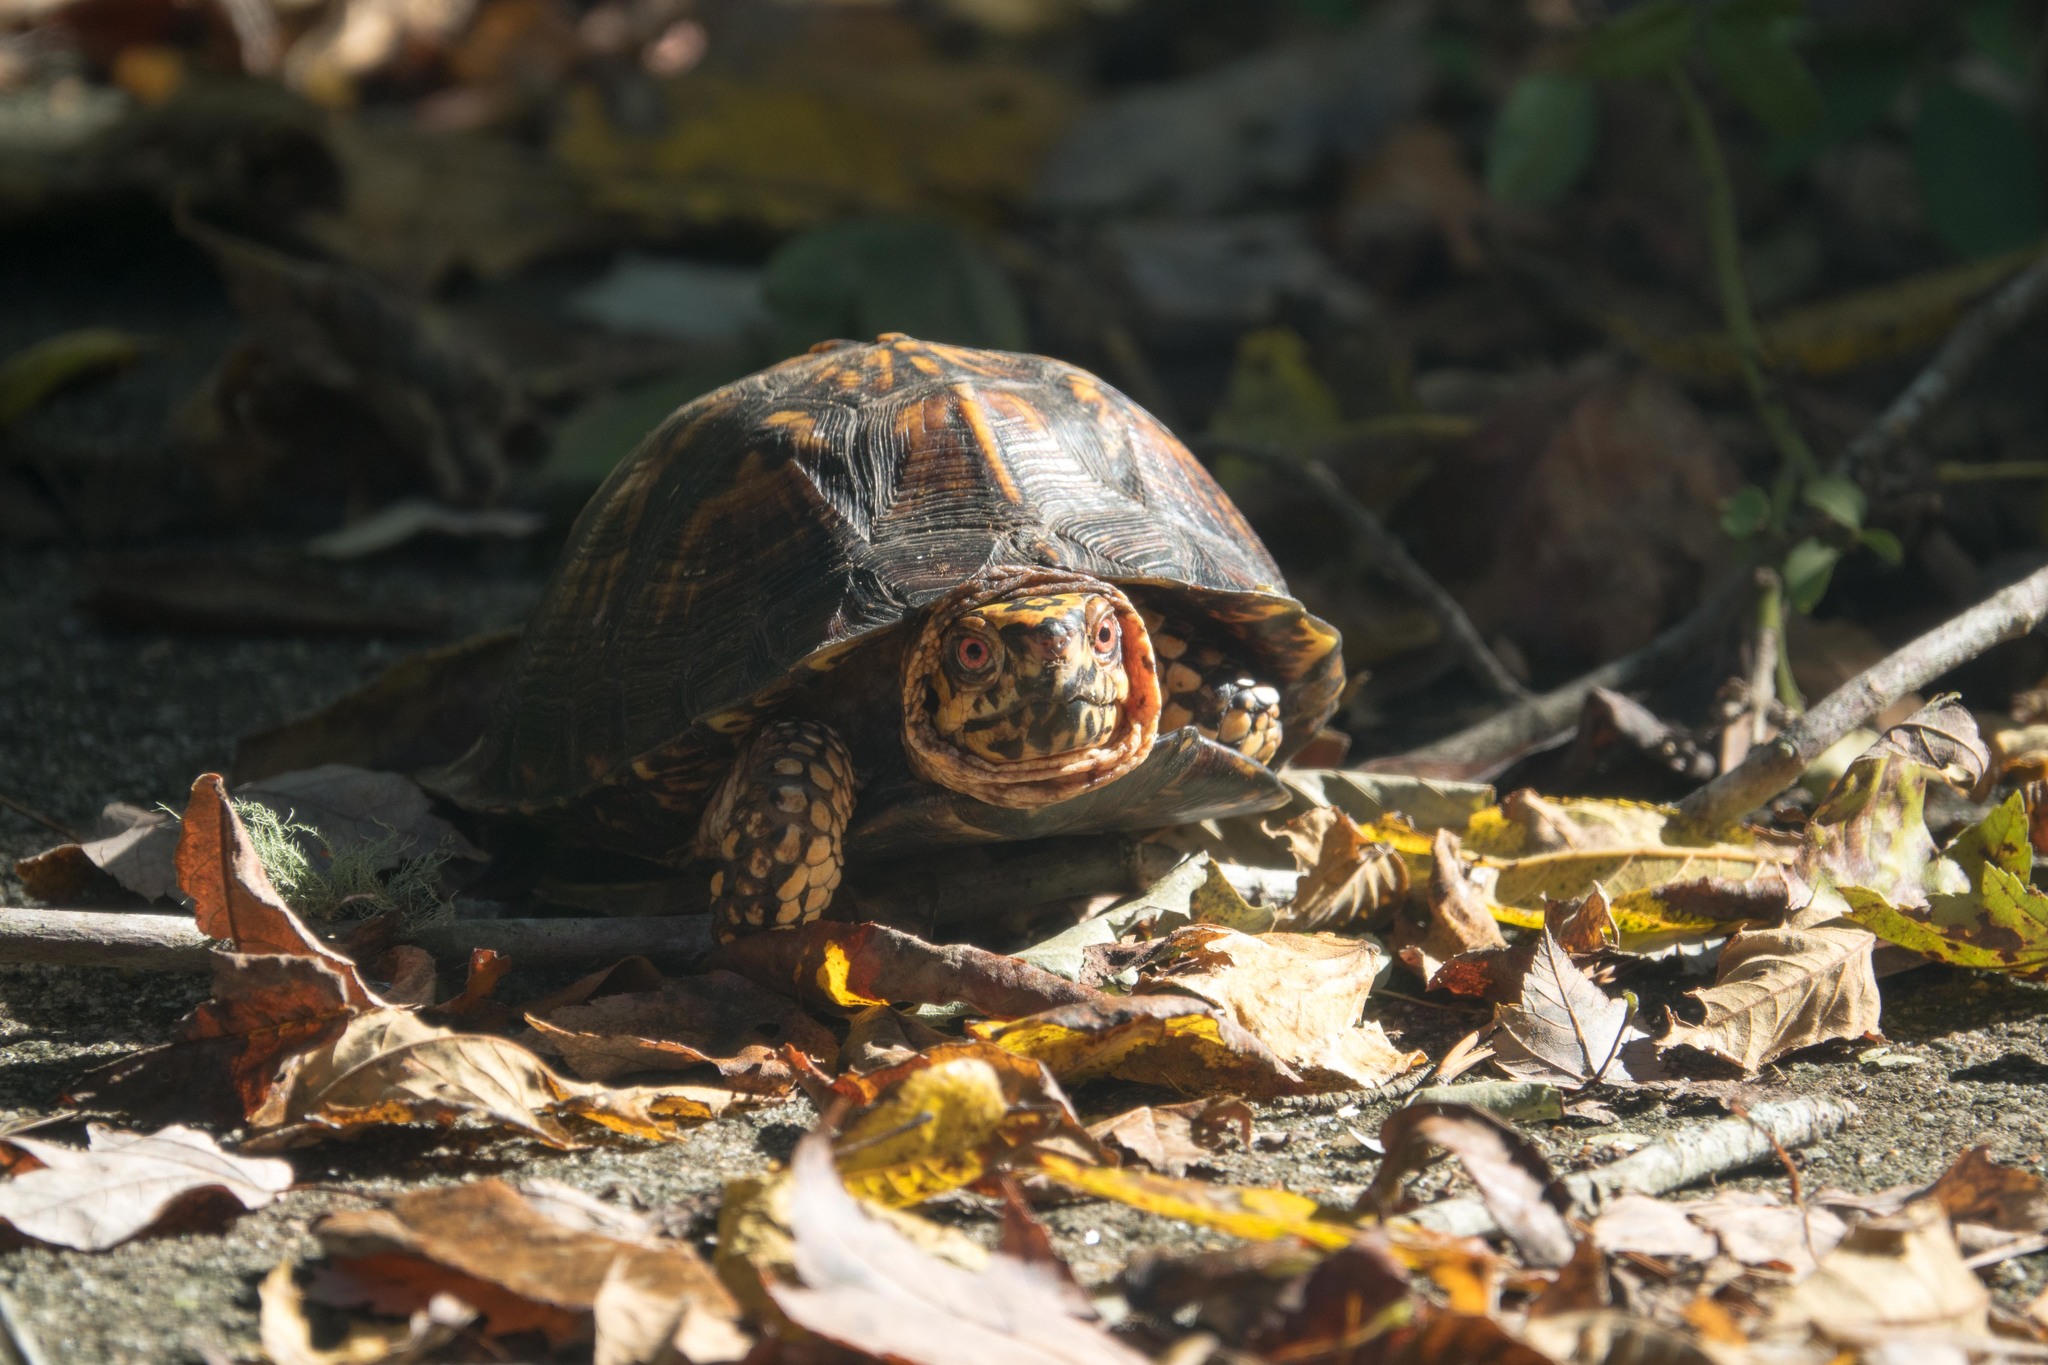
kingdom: Animalia
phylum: Chordata
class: Testudines
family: Emydidae
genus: Terrapene
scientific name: Terrapene carolina
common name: Common box turtle
